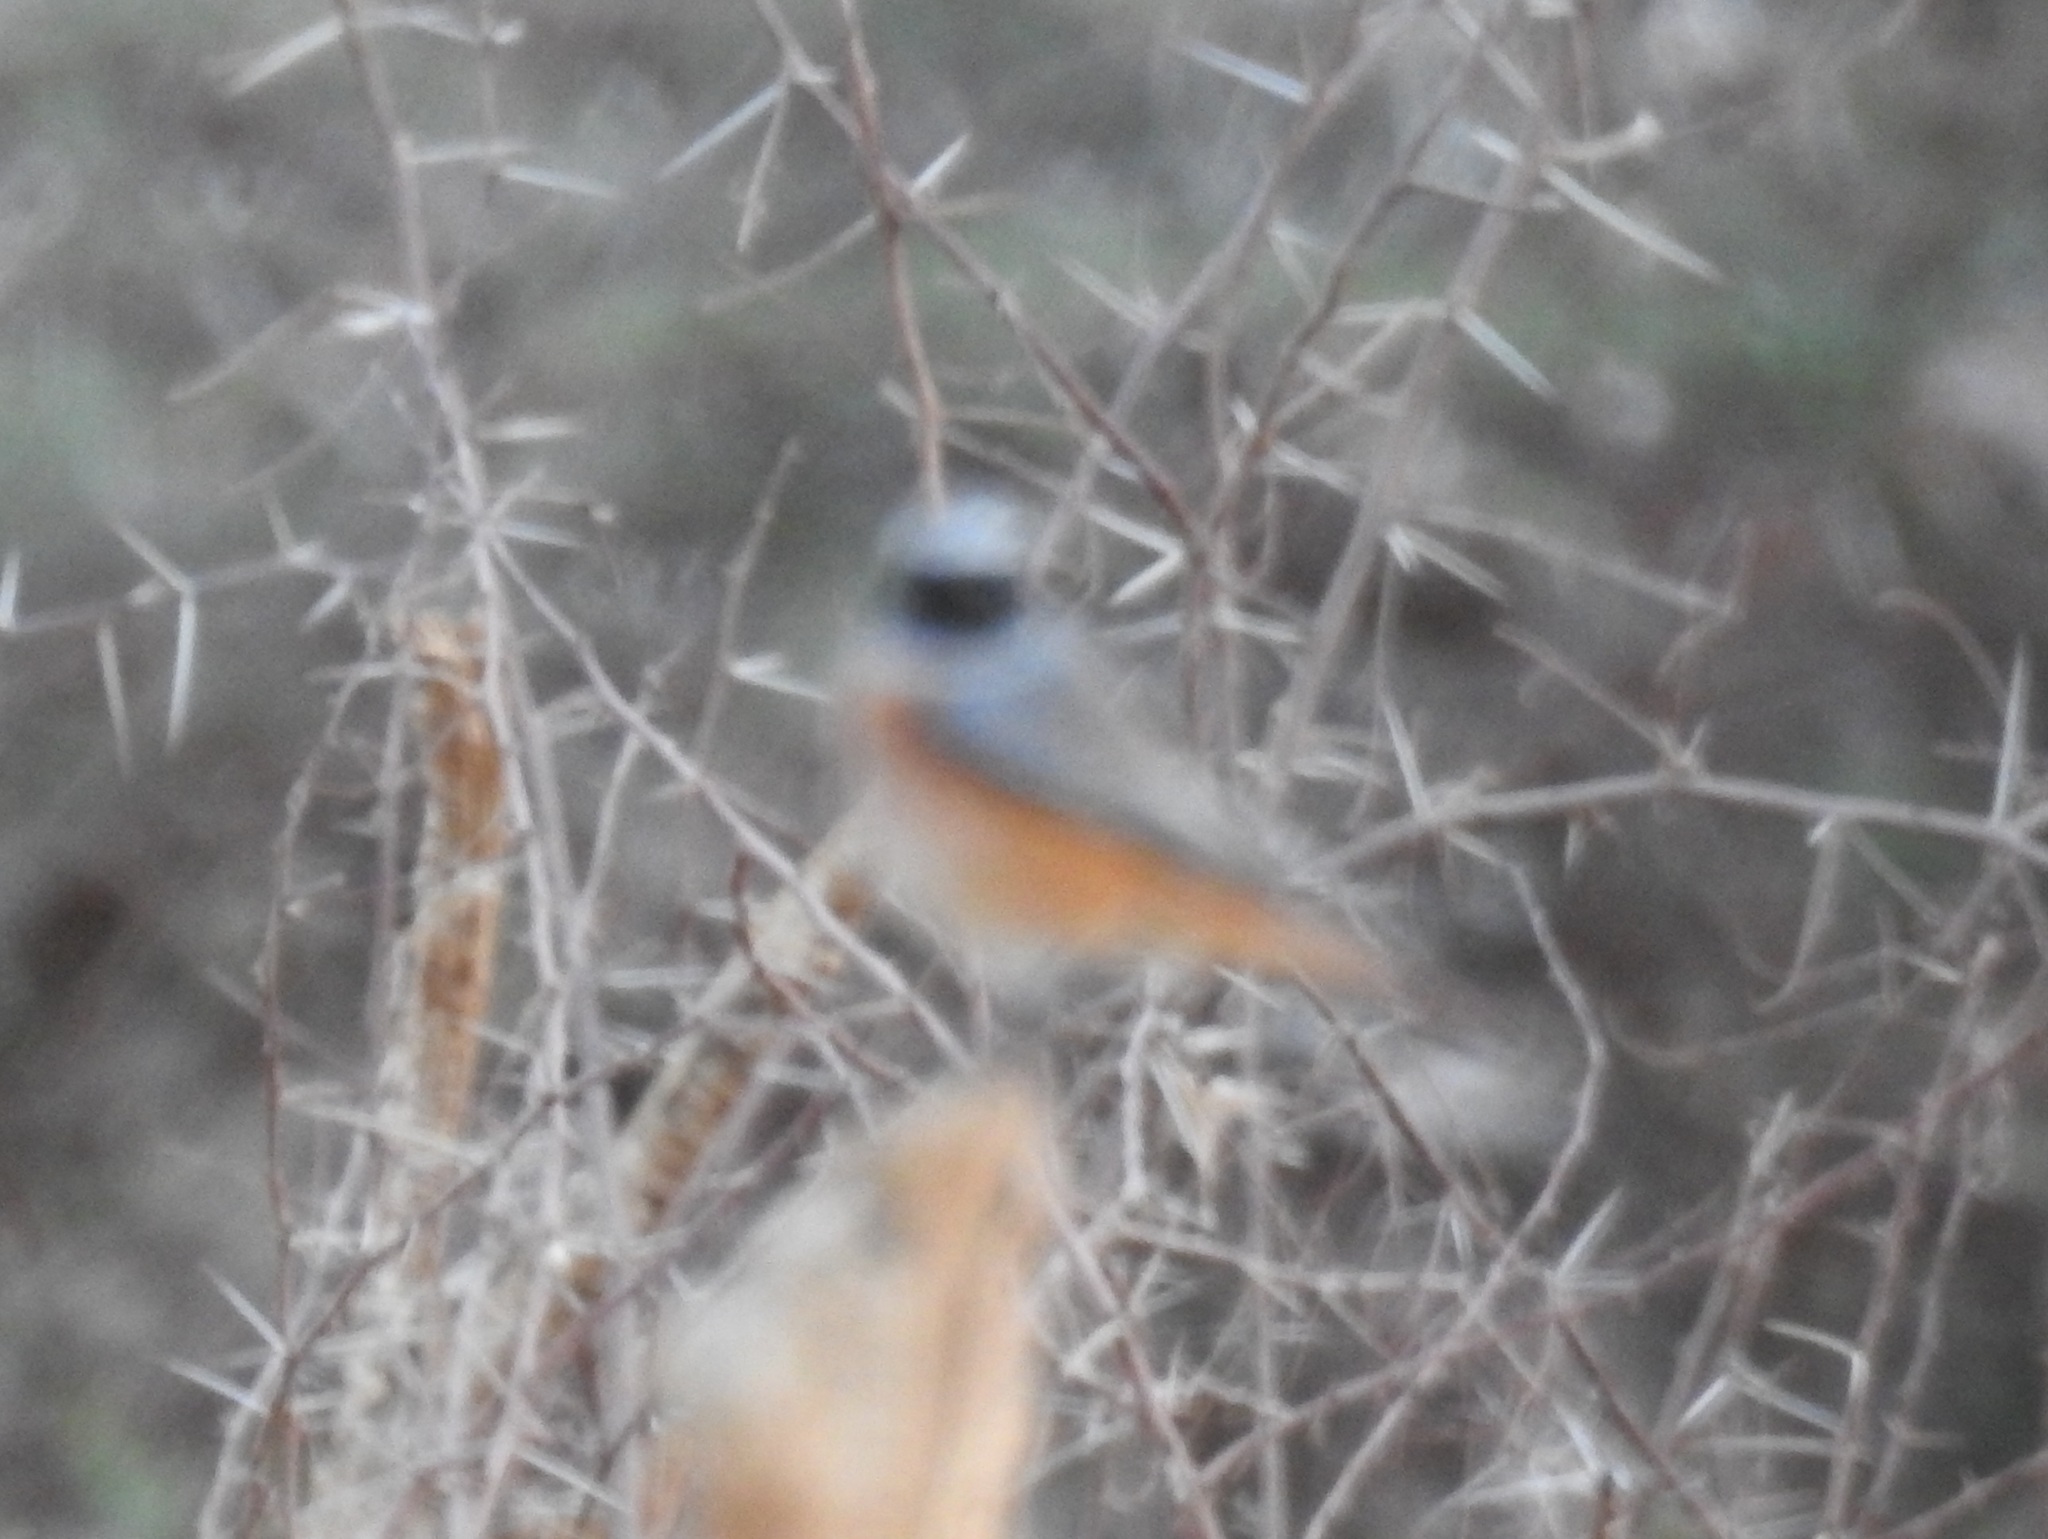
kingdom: Animalia
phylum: Chordata
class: Aves
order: Passeriformes
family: Muscicapidae
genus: Phoenicurus
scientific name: Phoenicurus phoenicurus
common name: Common redstart
